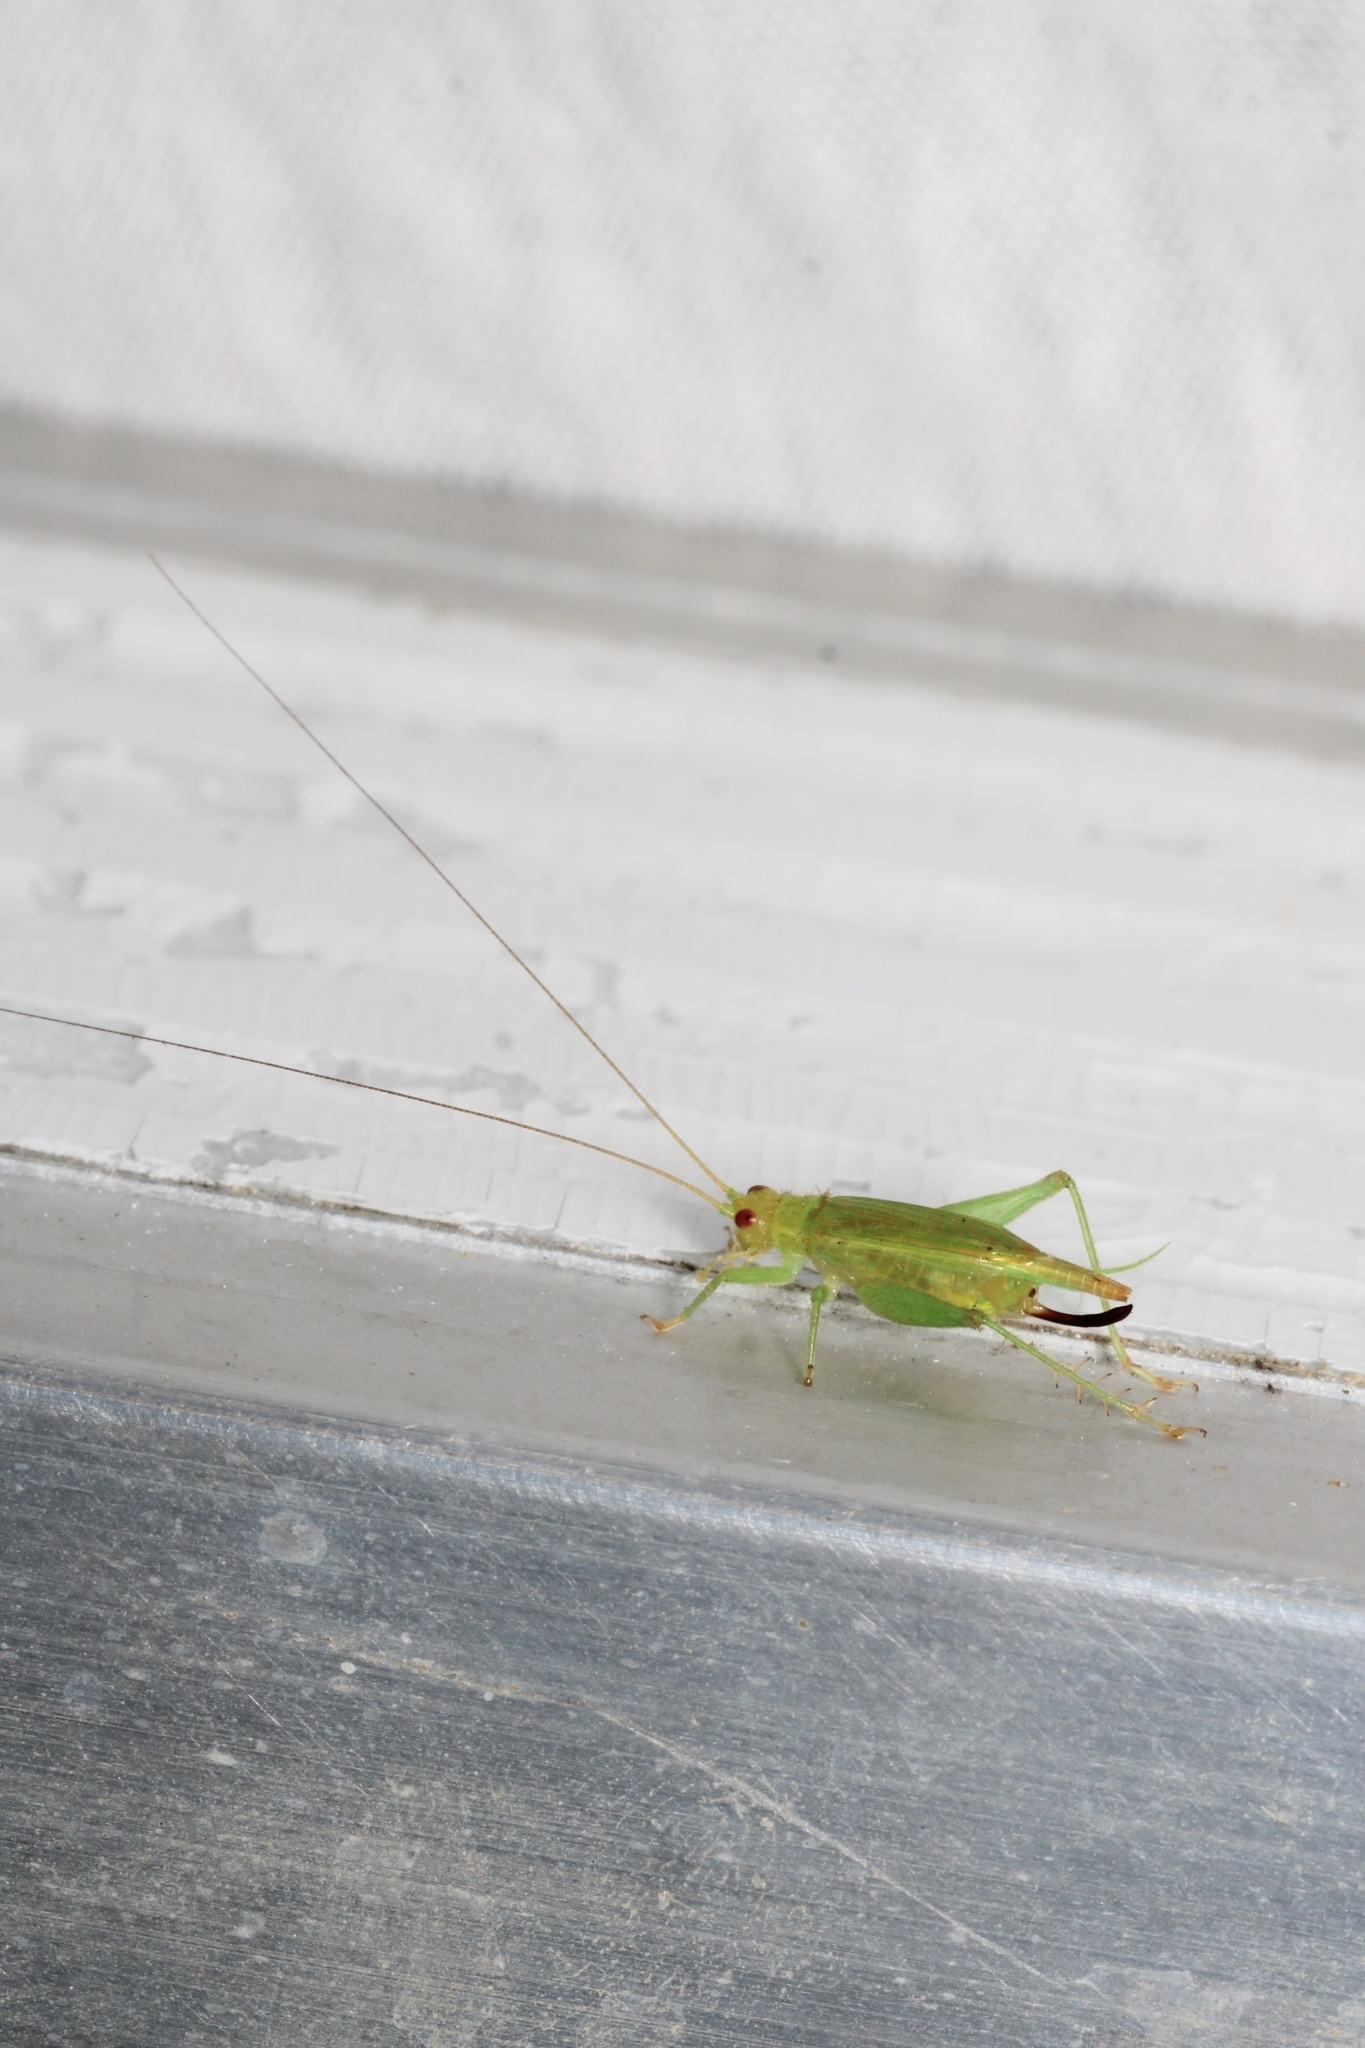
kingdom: Animalia
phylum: Arthropoda
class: Insecta
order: Orthoptera
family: Trigonidiidae
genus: Cyrtoxipha
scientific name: Cyrtoxipha columbiana
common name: Columbian trig
